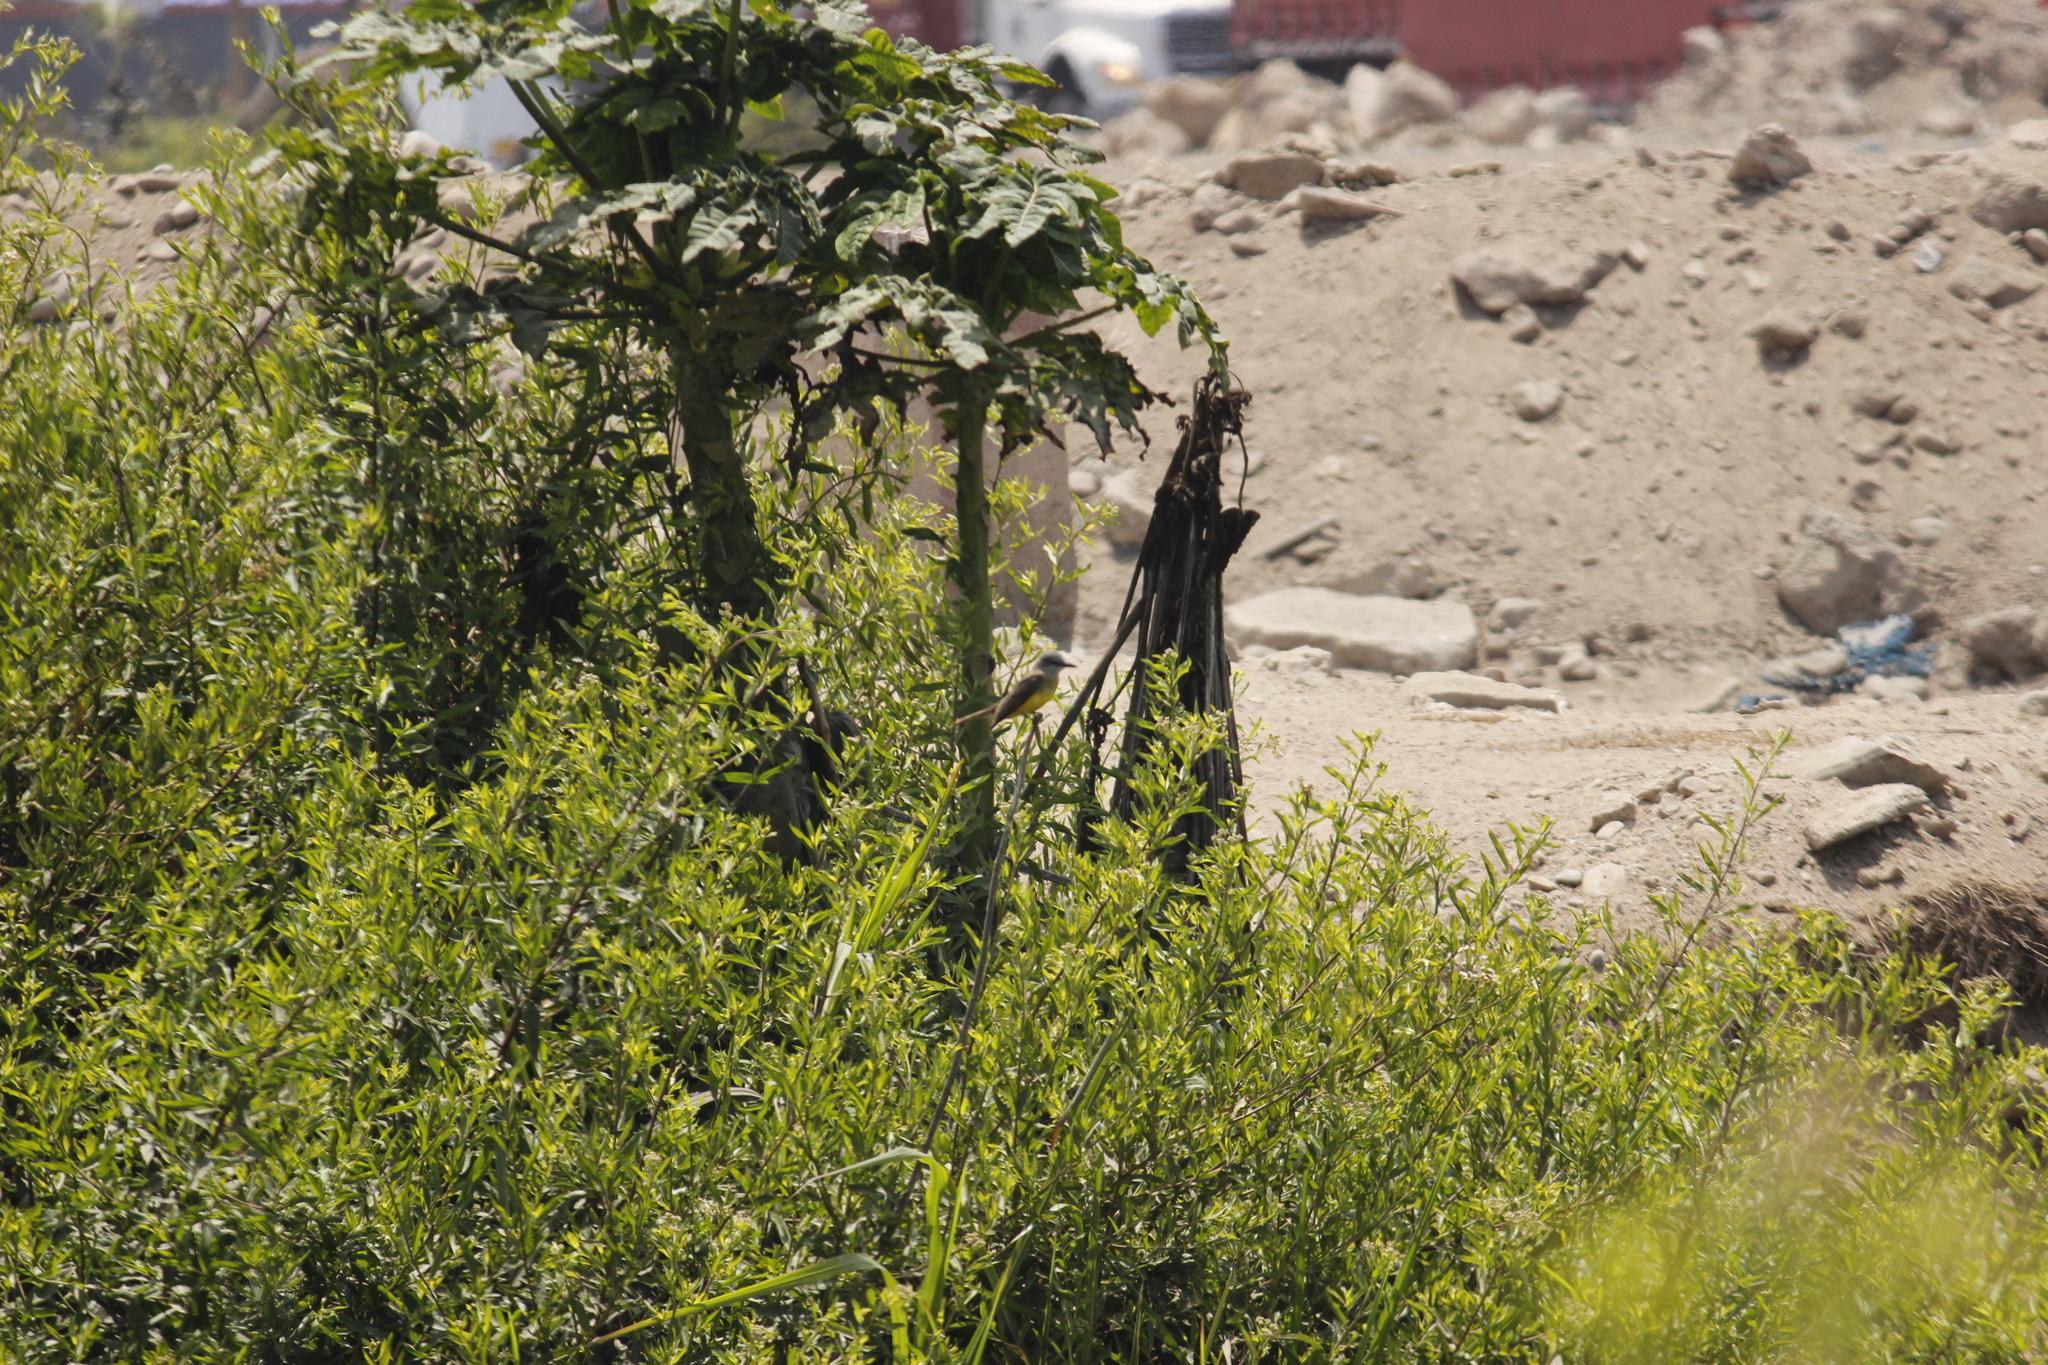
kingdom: Animalia
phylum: Chordata
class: Aves
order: Passeriformes
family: Tyrannidae
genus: Tyrannus
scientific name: Tyrannus melancholicus
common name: Tropical kingbird
